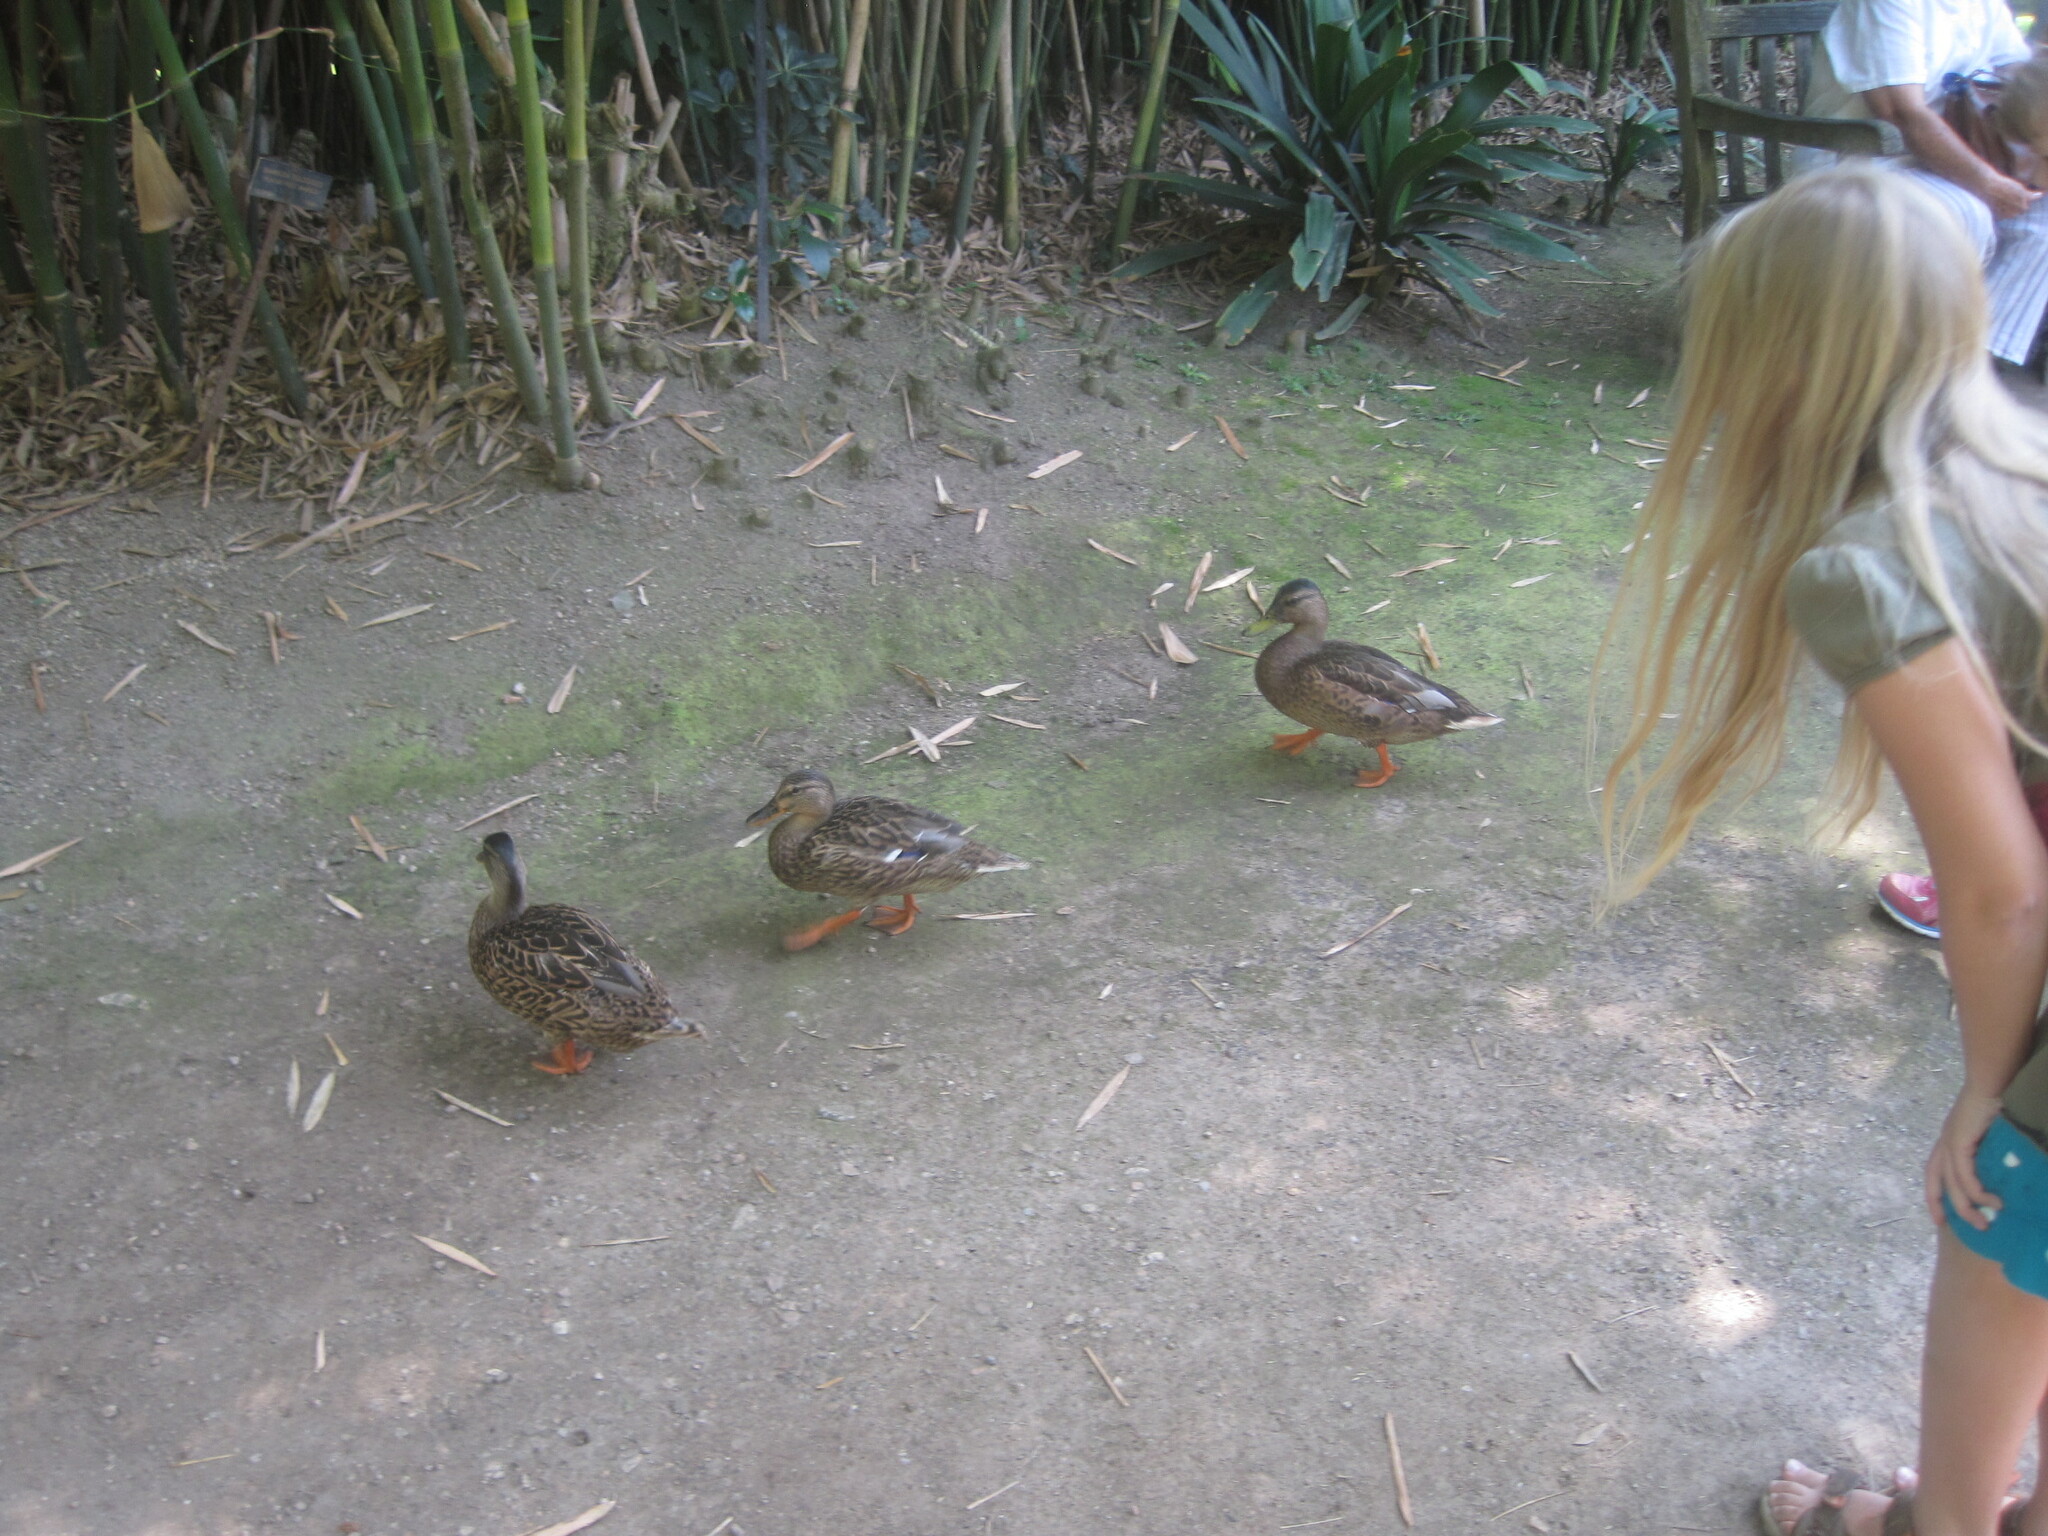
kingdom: Animalia
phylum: Chordata
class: Aves
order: Anseriformes
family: Anatidae
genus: Anas
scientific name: Anas platyrhynchos
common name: Mallard
